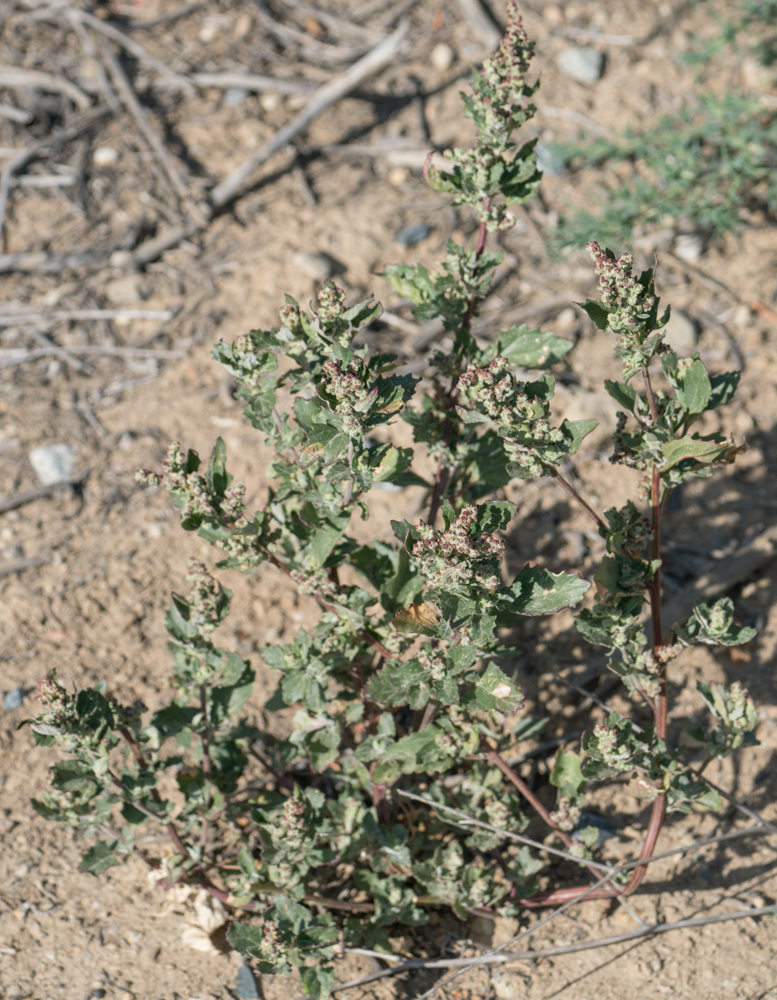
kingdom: Plantae
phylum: Tracheophyta
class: Magnoliopsida
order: Caryophyllales
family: Amaranthaceae
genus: Chenopodiastrum
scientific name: Chenopodiastrum murale
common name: Sowbane
